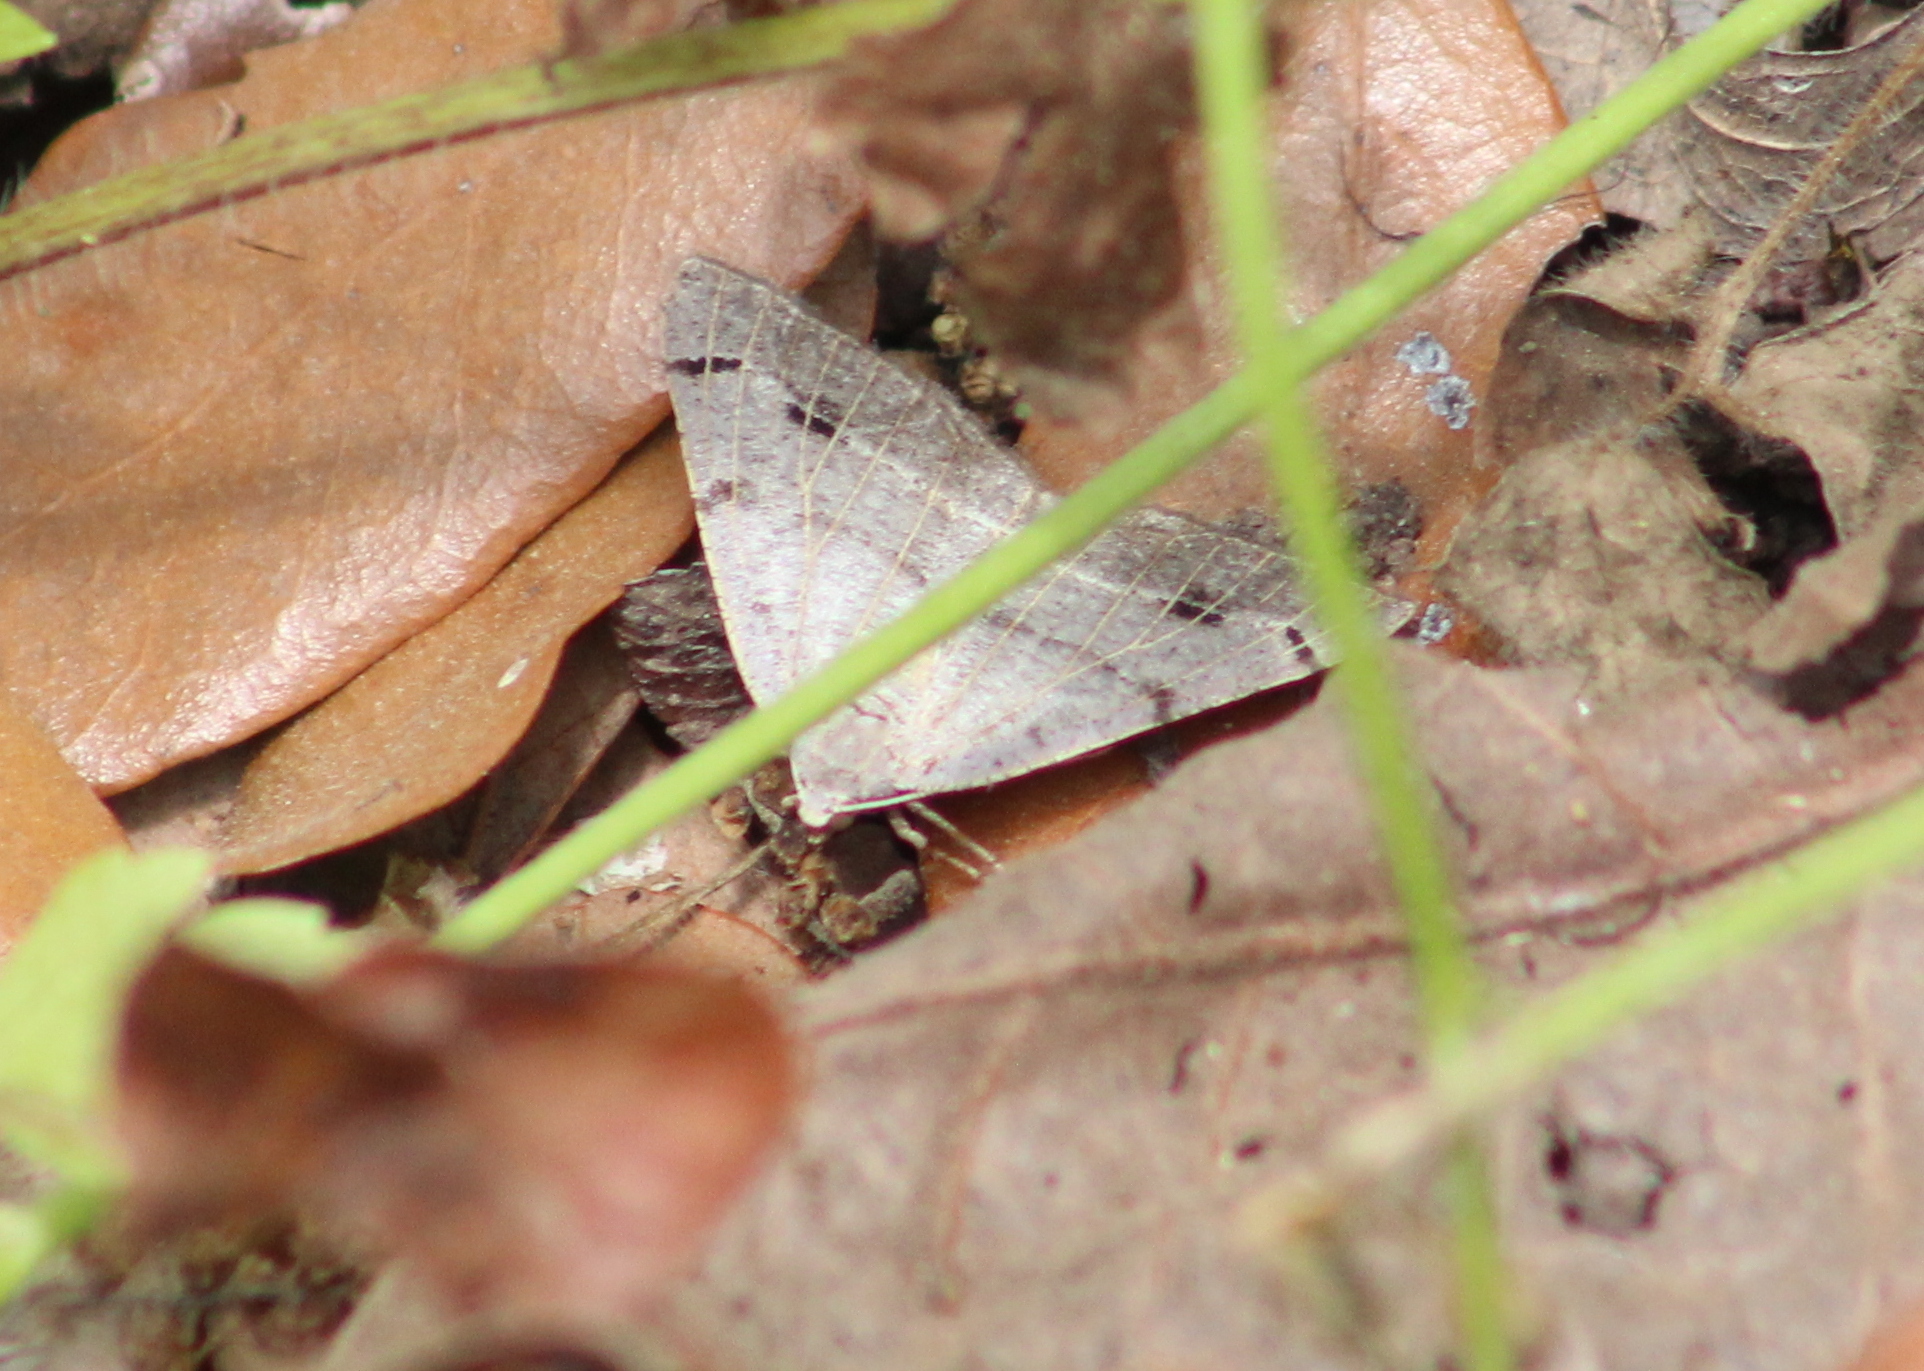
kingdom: Animalia
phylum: Arthropoda
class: Insecta
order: Lepidoptera
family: Geometridae
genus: Isturgia
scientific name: Isturgia dislocaria
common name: Pale-viened enconista
